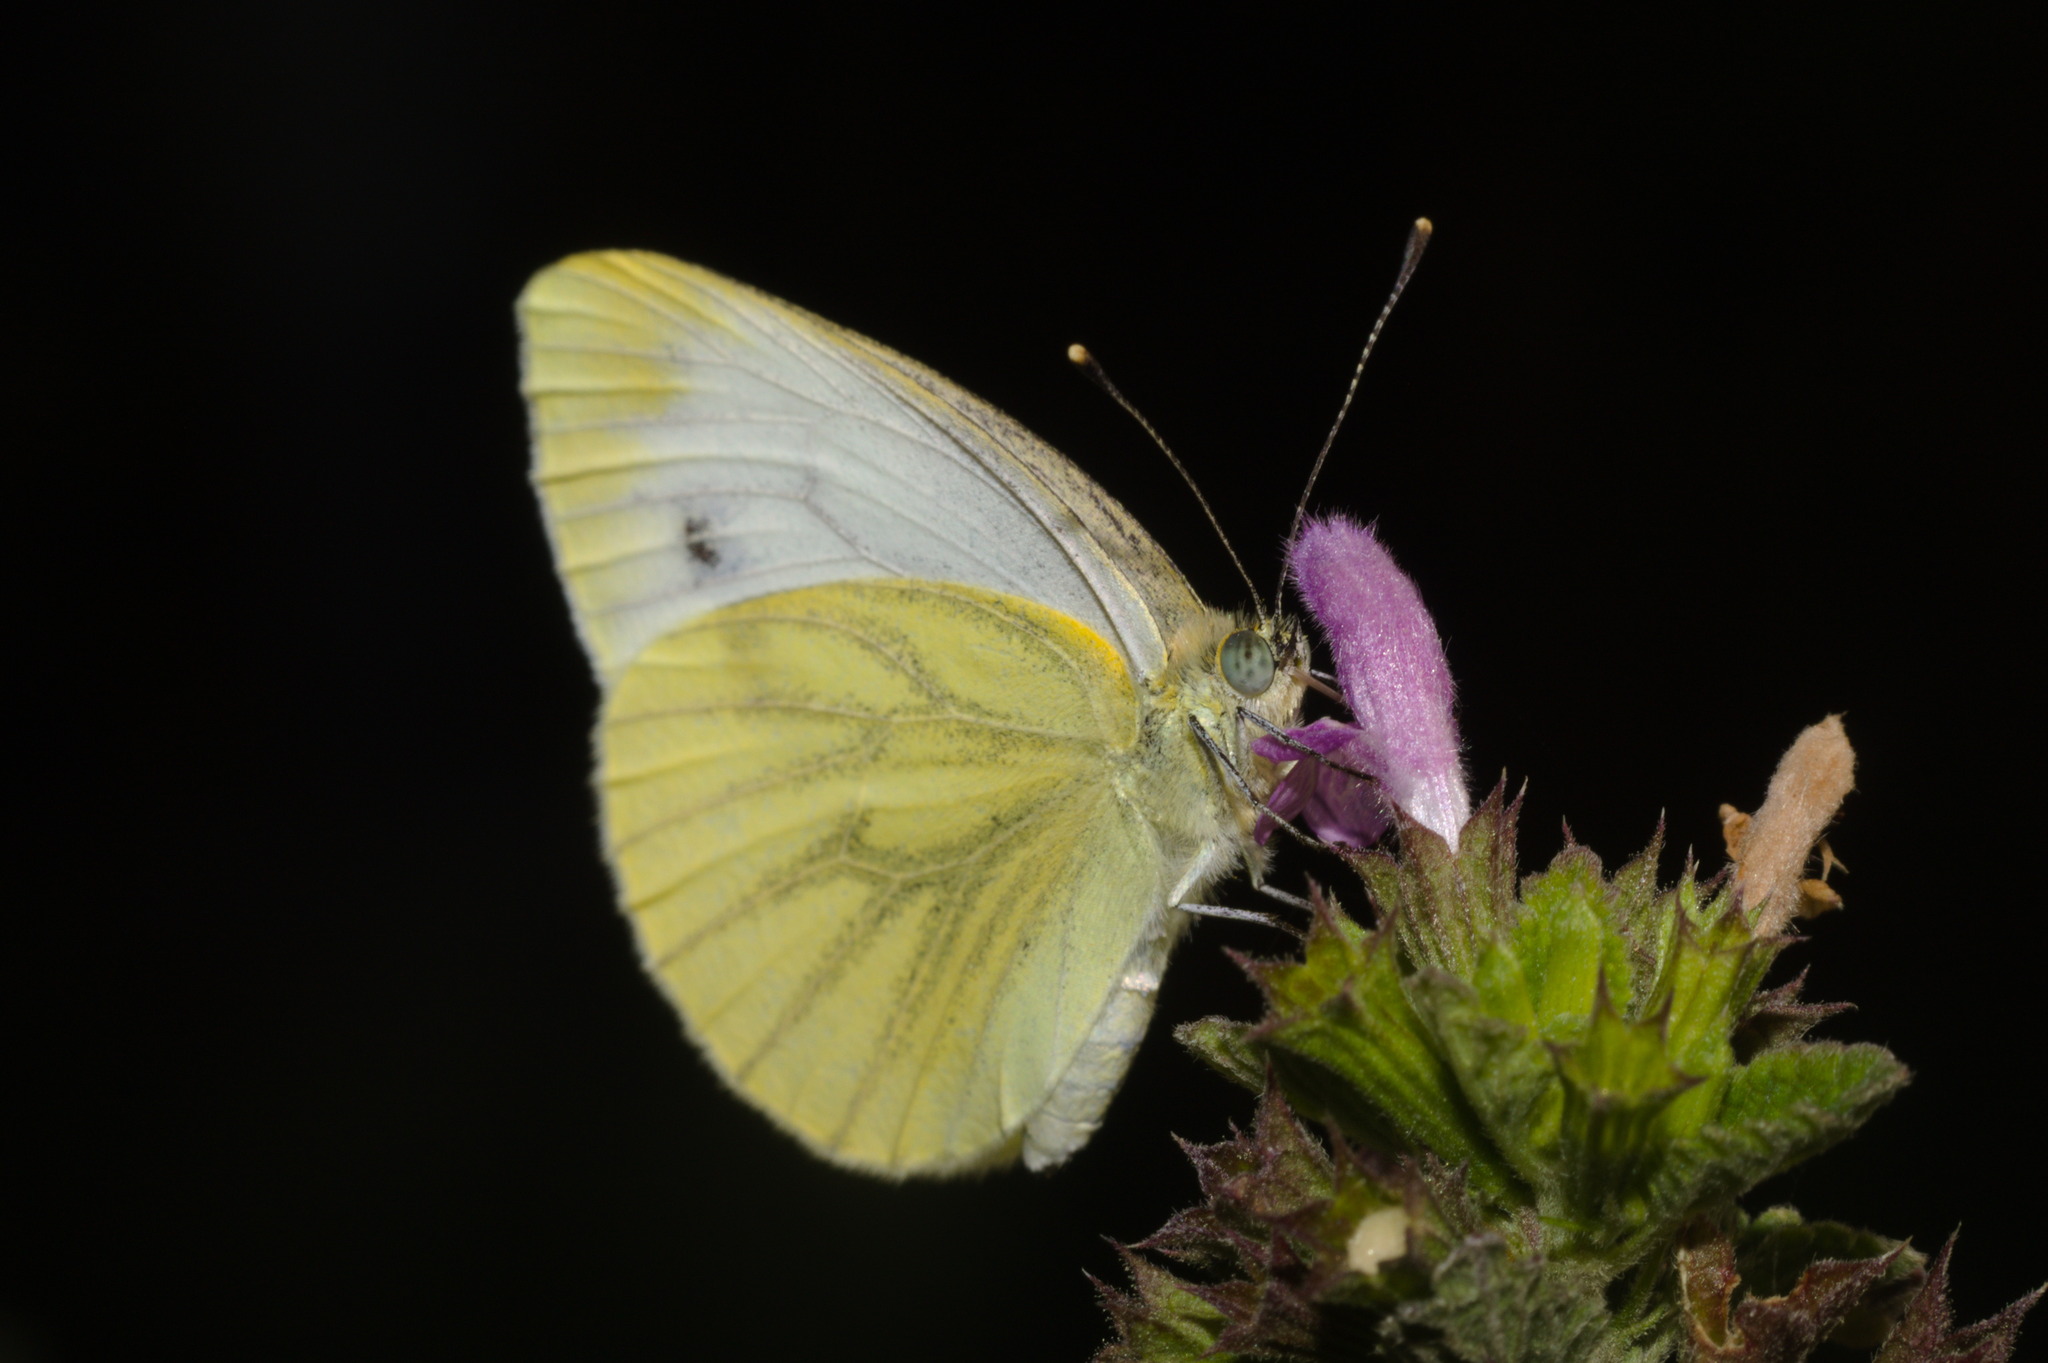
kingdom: Animalia
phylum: Arthropoda
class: Insecta
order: Lepidoptera
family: Pieridae
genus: Pieris
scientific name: Pieris napi
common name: Green-veined white
